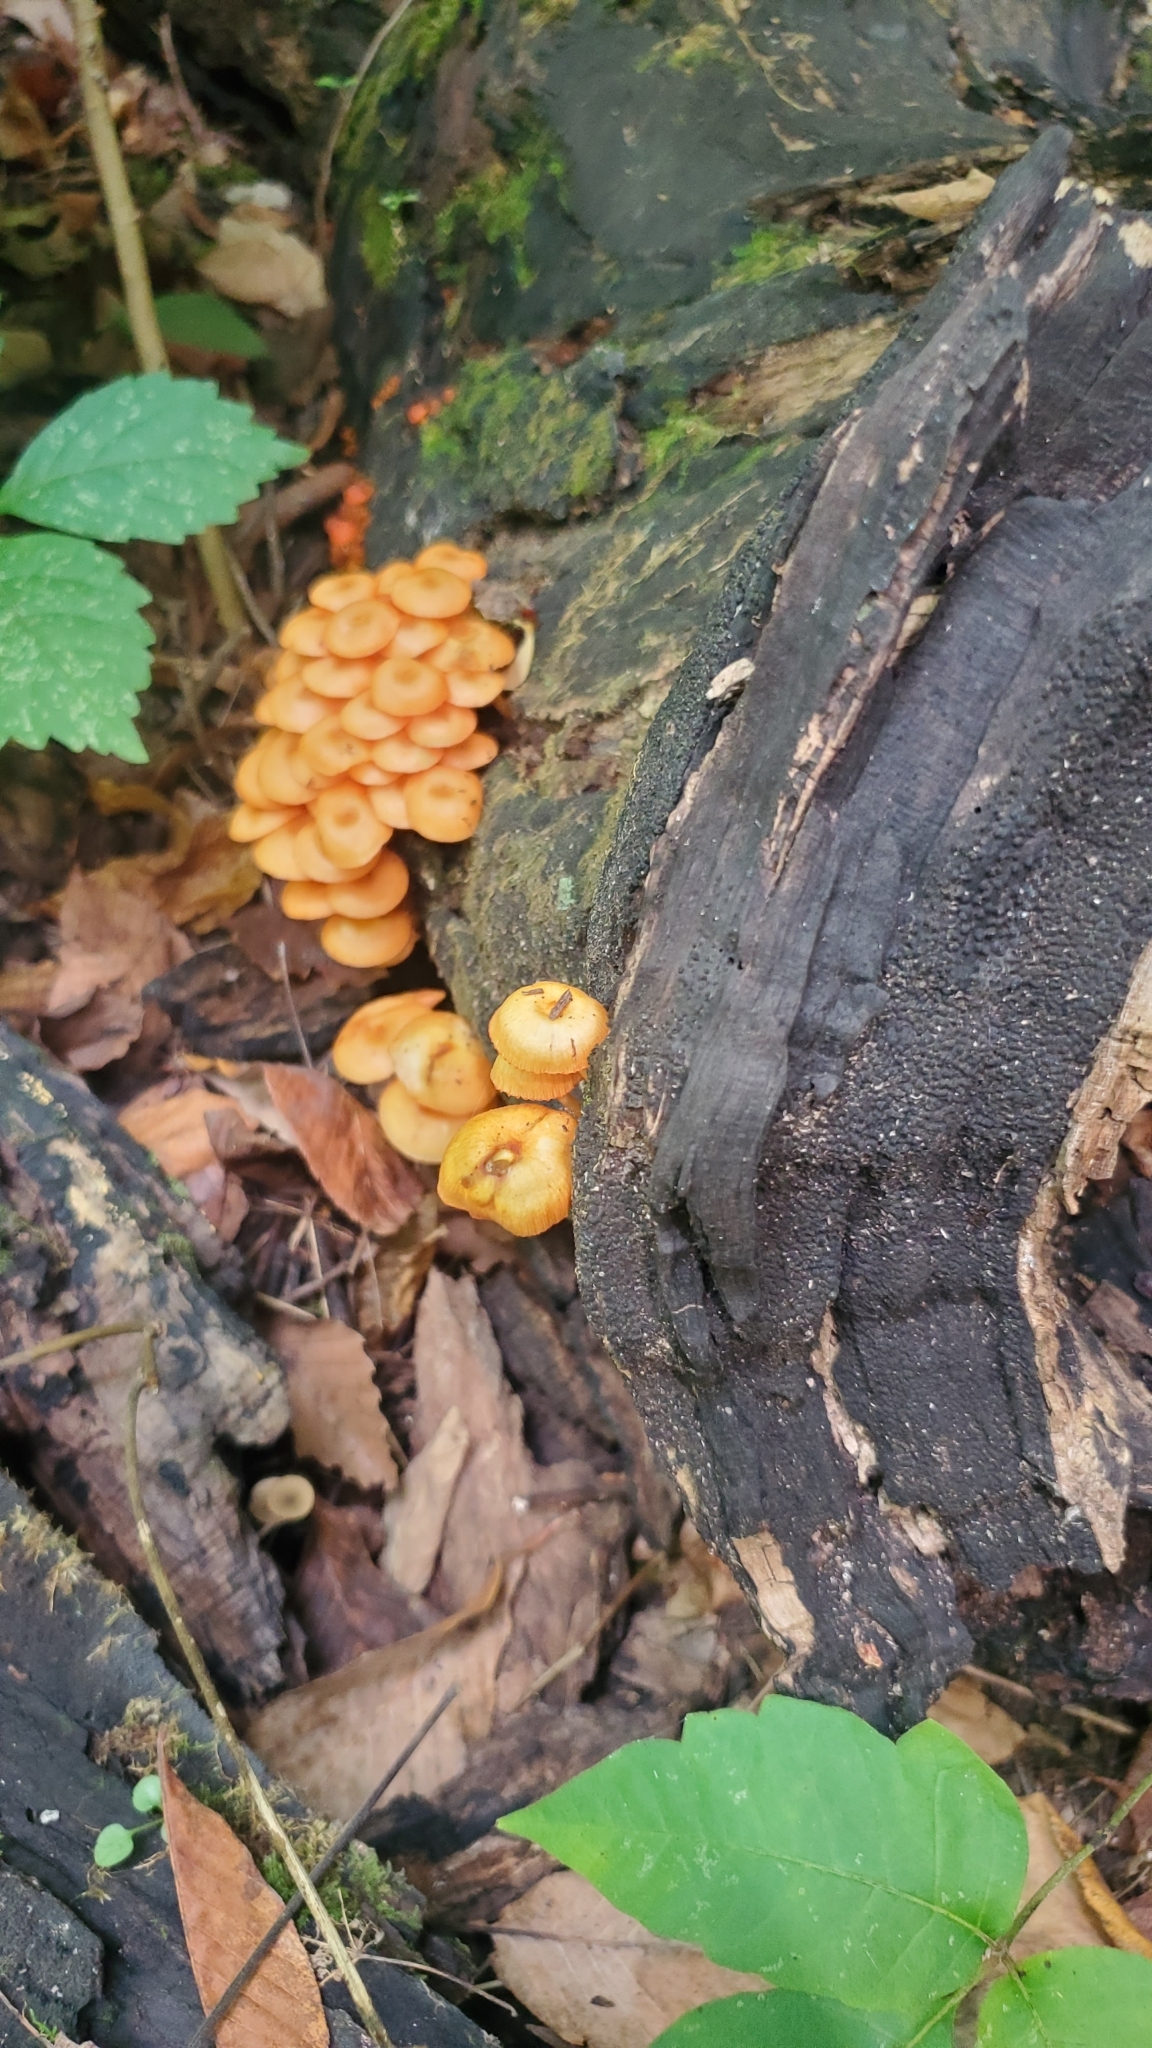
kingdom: Fungi
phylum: Basidiomycota
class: Agaricomycetes
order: Agaricales
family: Mycenaceae
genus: Mycena
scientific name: Mycena leaiana
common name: Orange mycena
